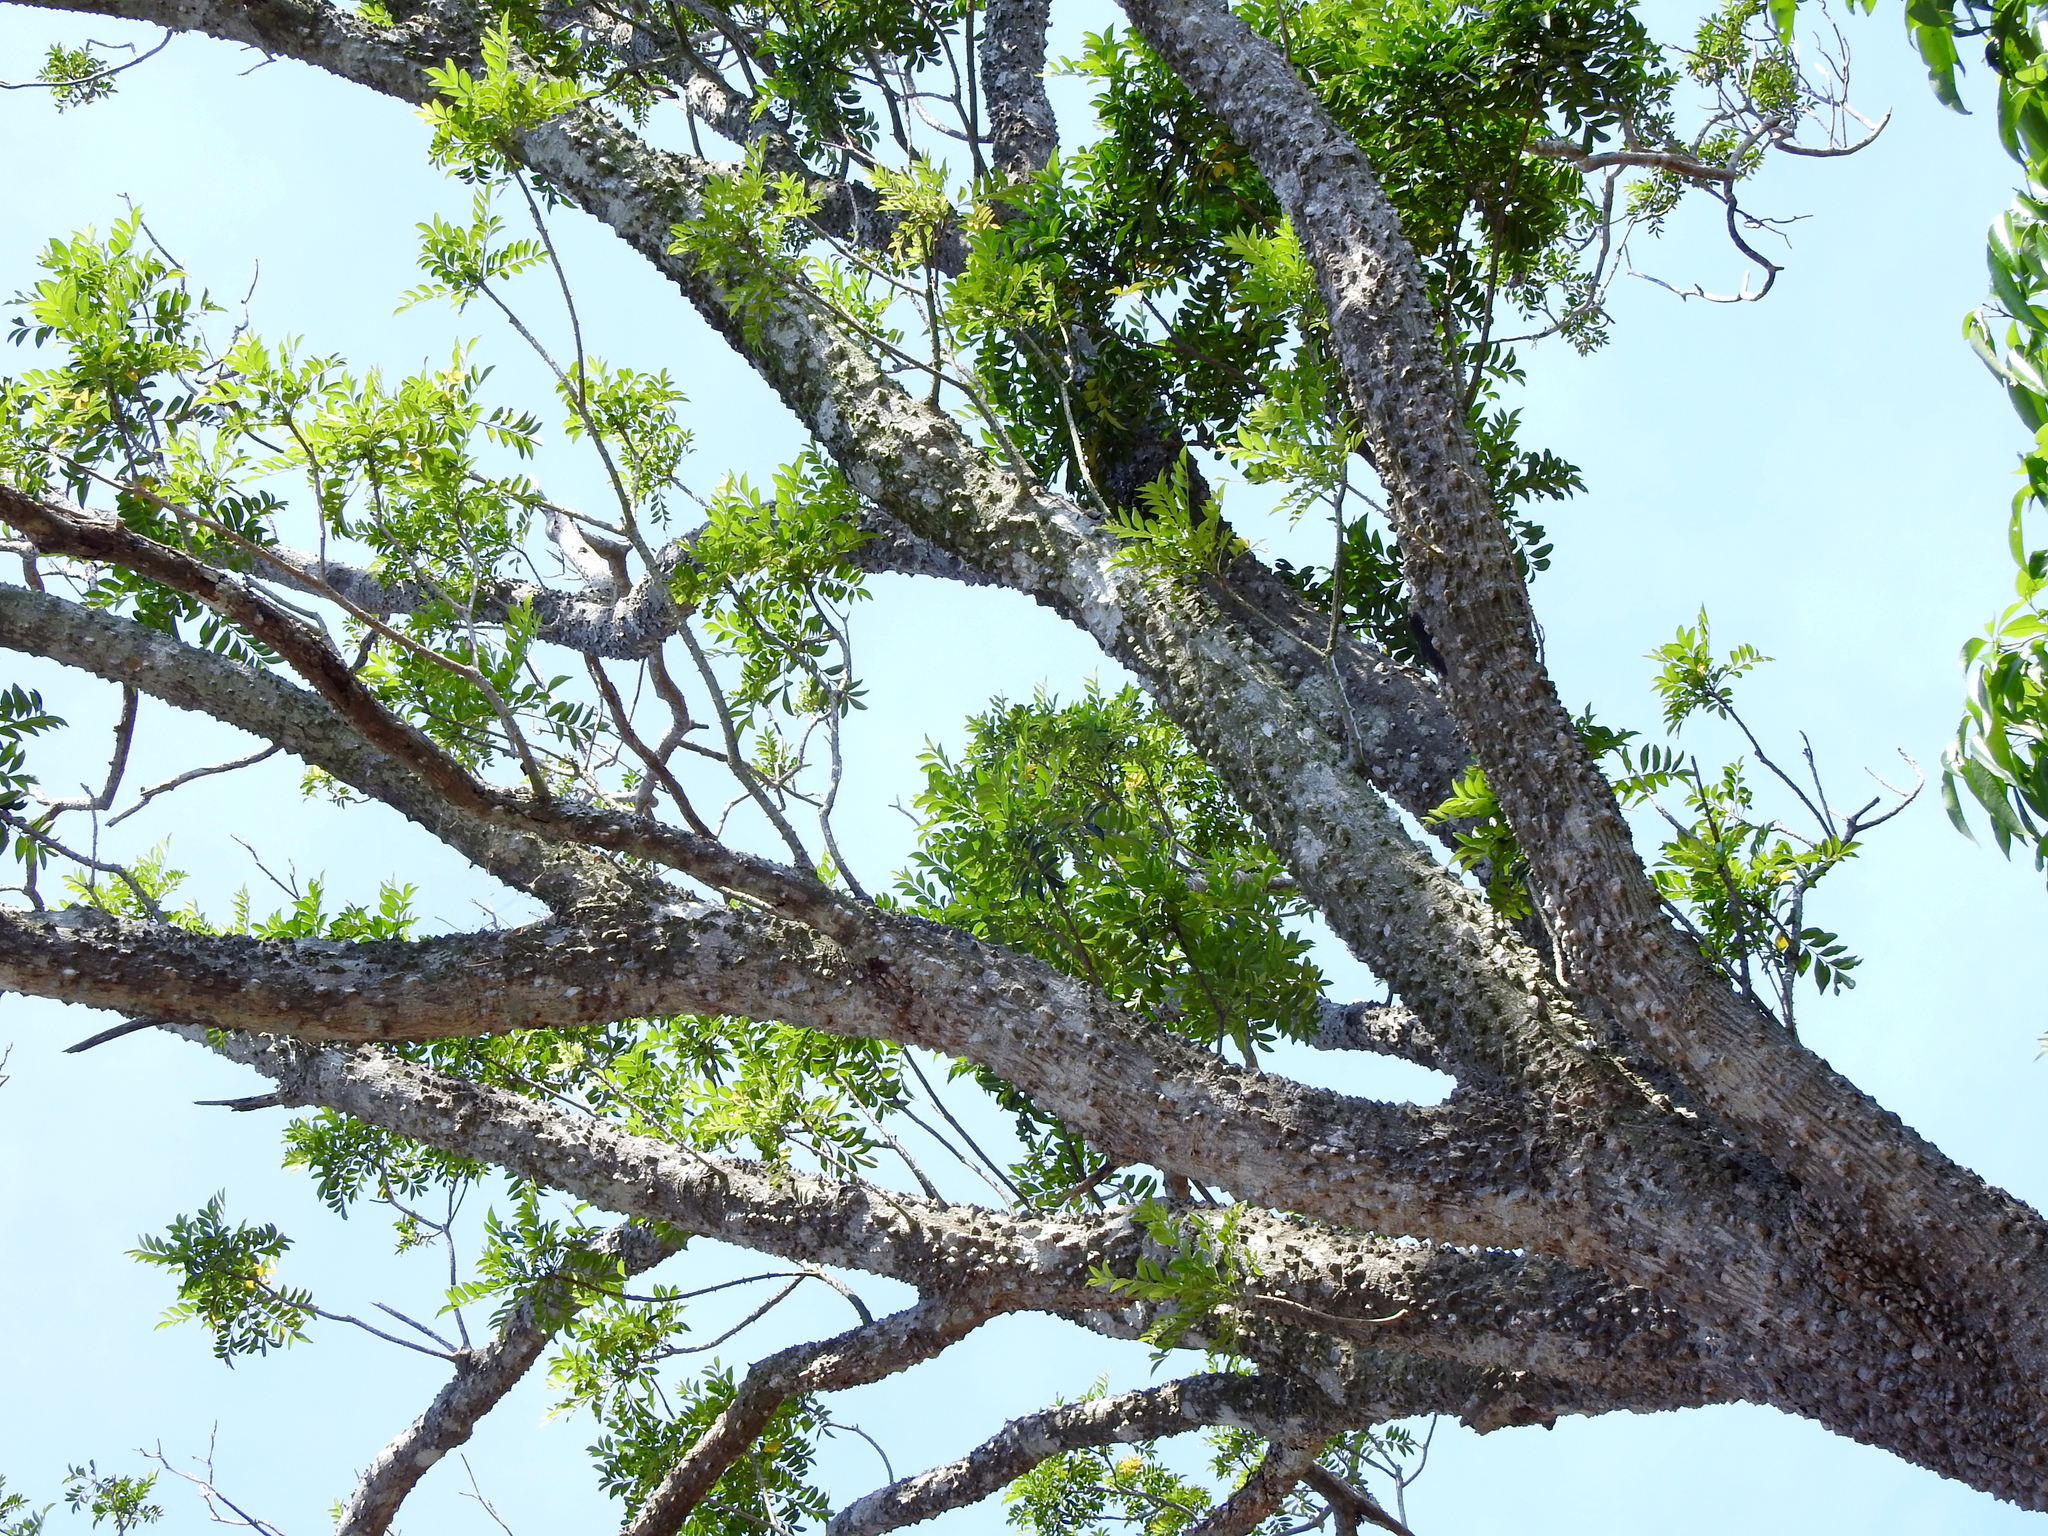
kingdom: Plantae
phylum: Tracheophyta
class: Magnoliopsida
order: Sapindales
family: Rutaceae
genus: Zanthoxylum
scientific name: Zanthoxylum avicennae
